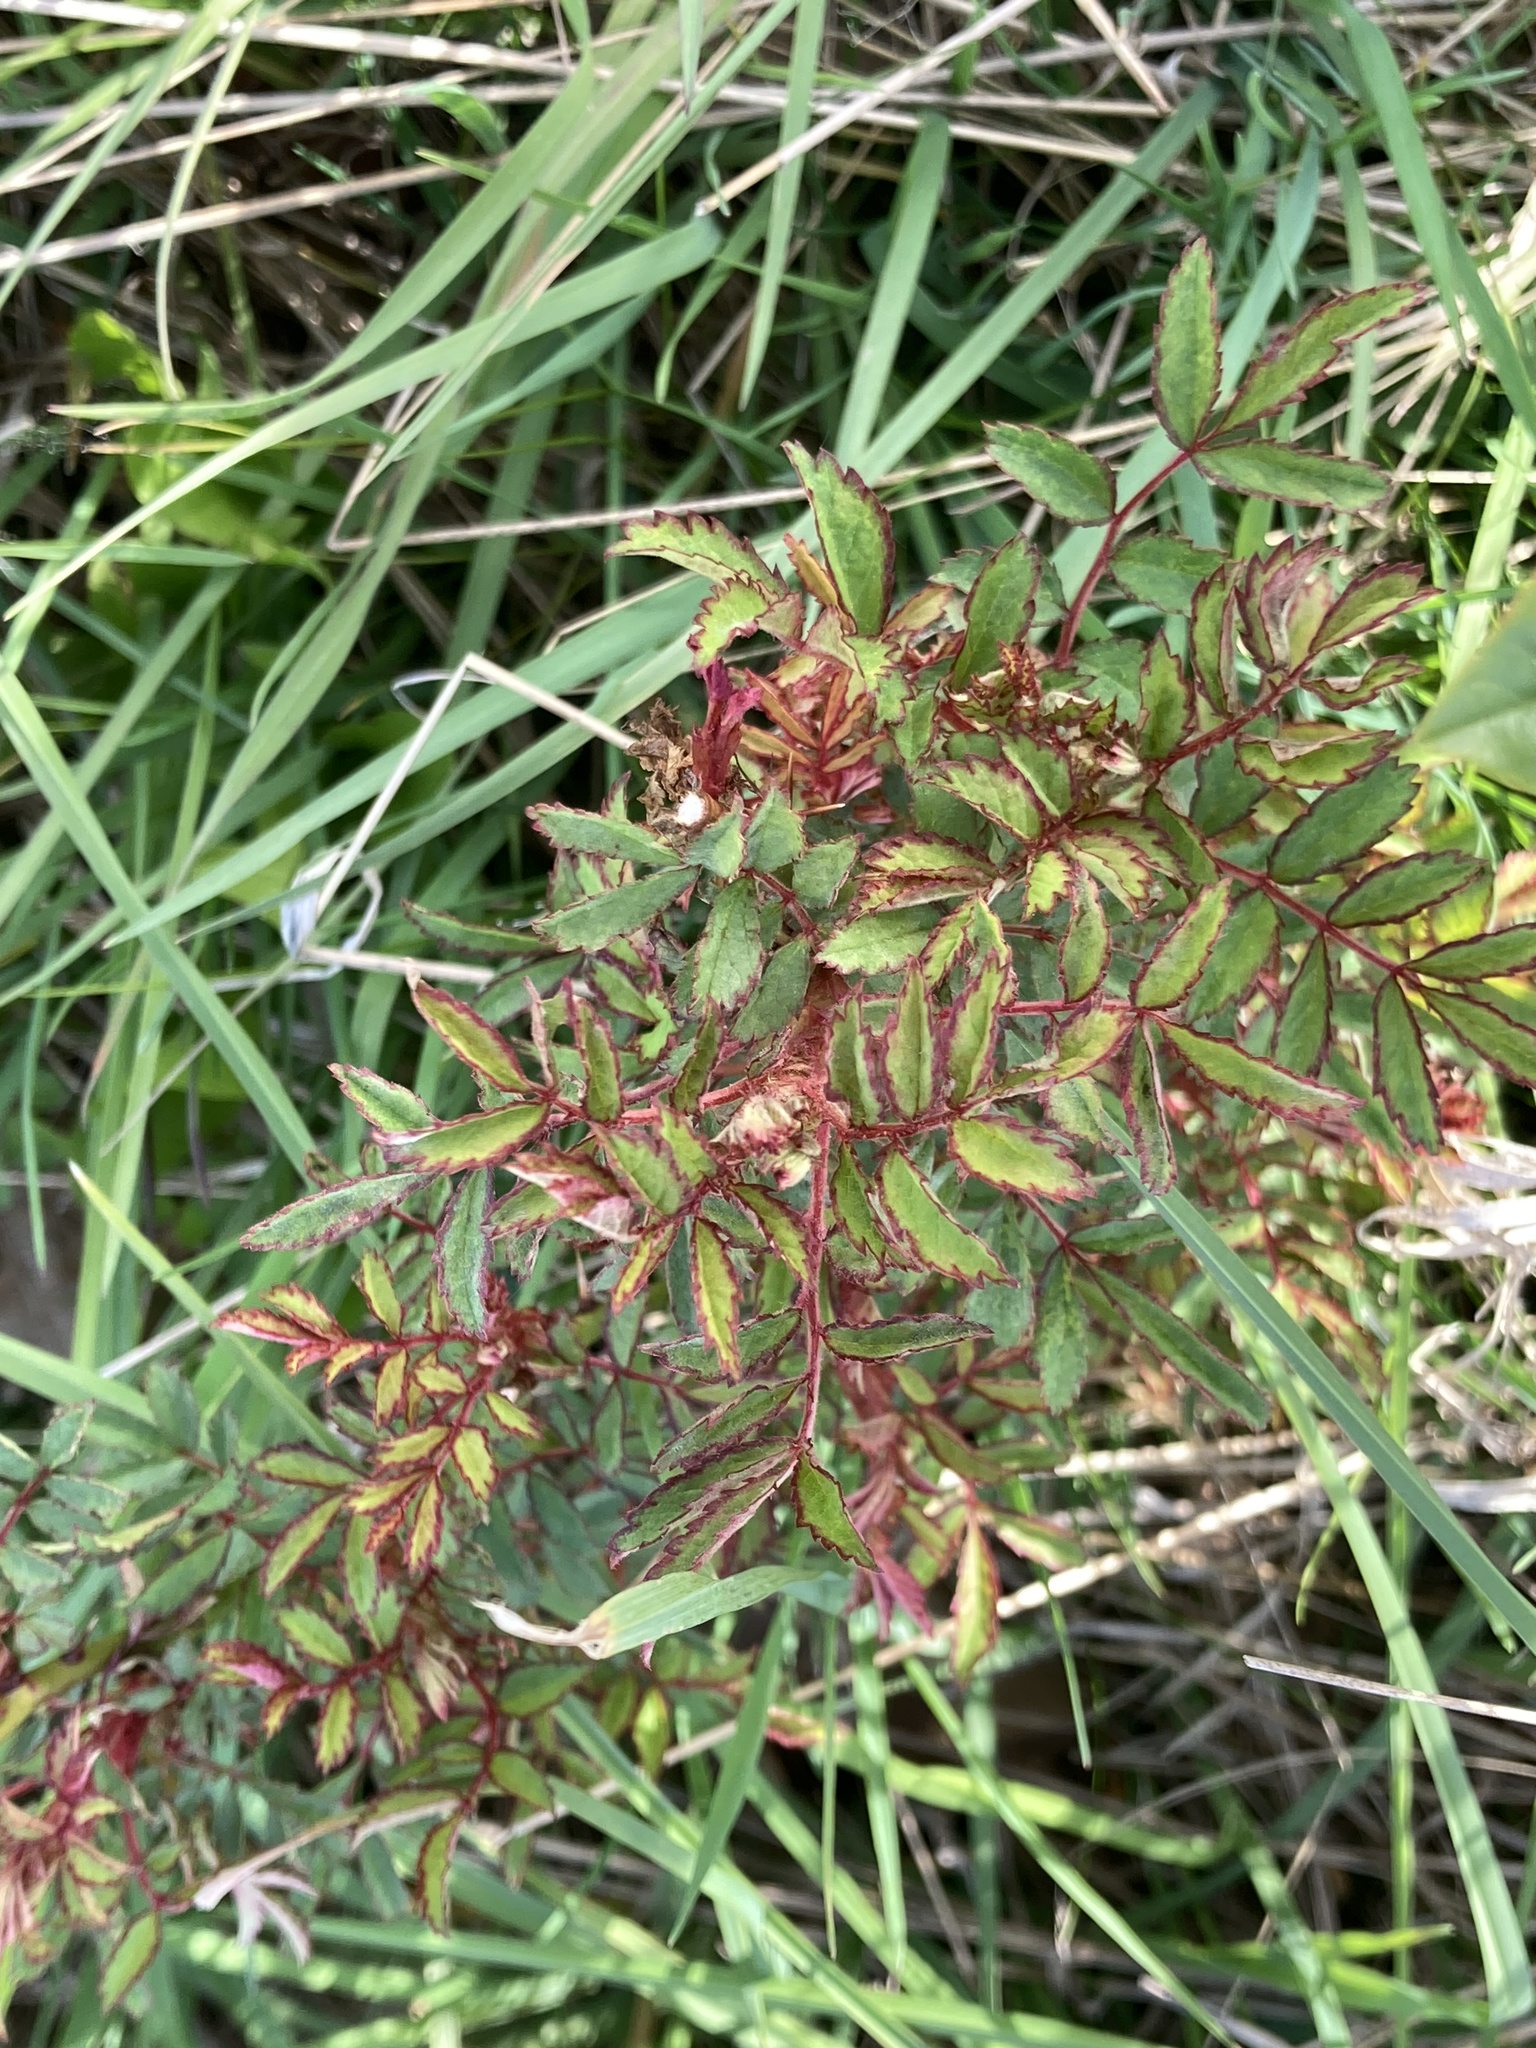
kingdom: Plantae
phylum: Tracheophyta
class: Magnoliopsida
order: Rosales
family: Rosaceae
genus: Rosa
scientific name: Rosa multiflora
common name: Multiflora rose
